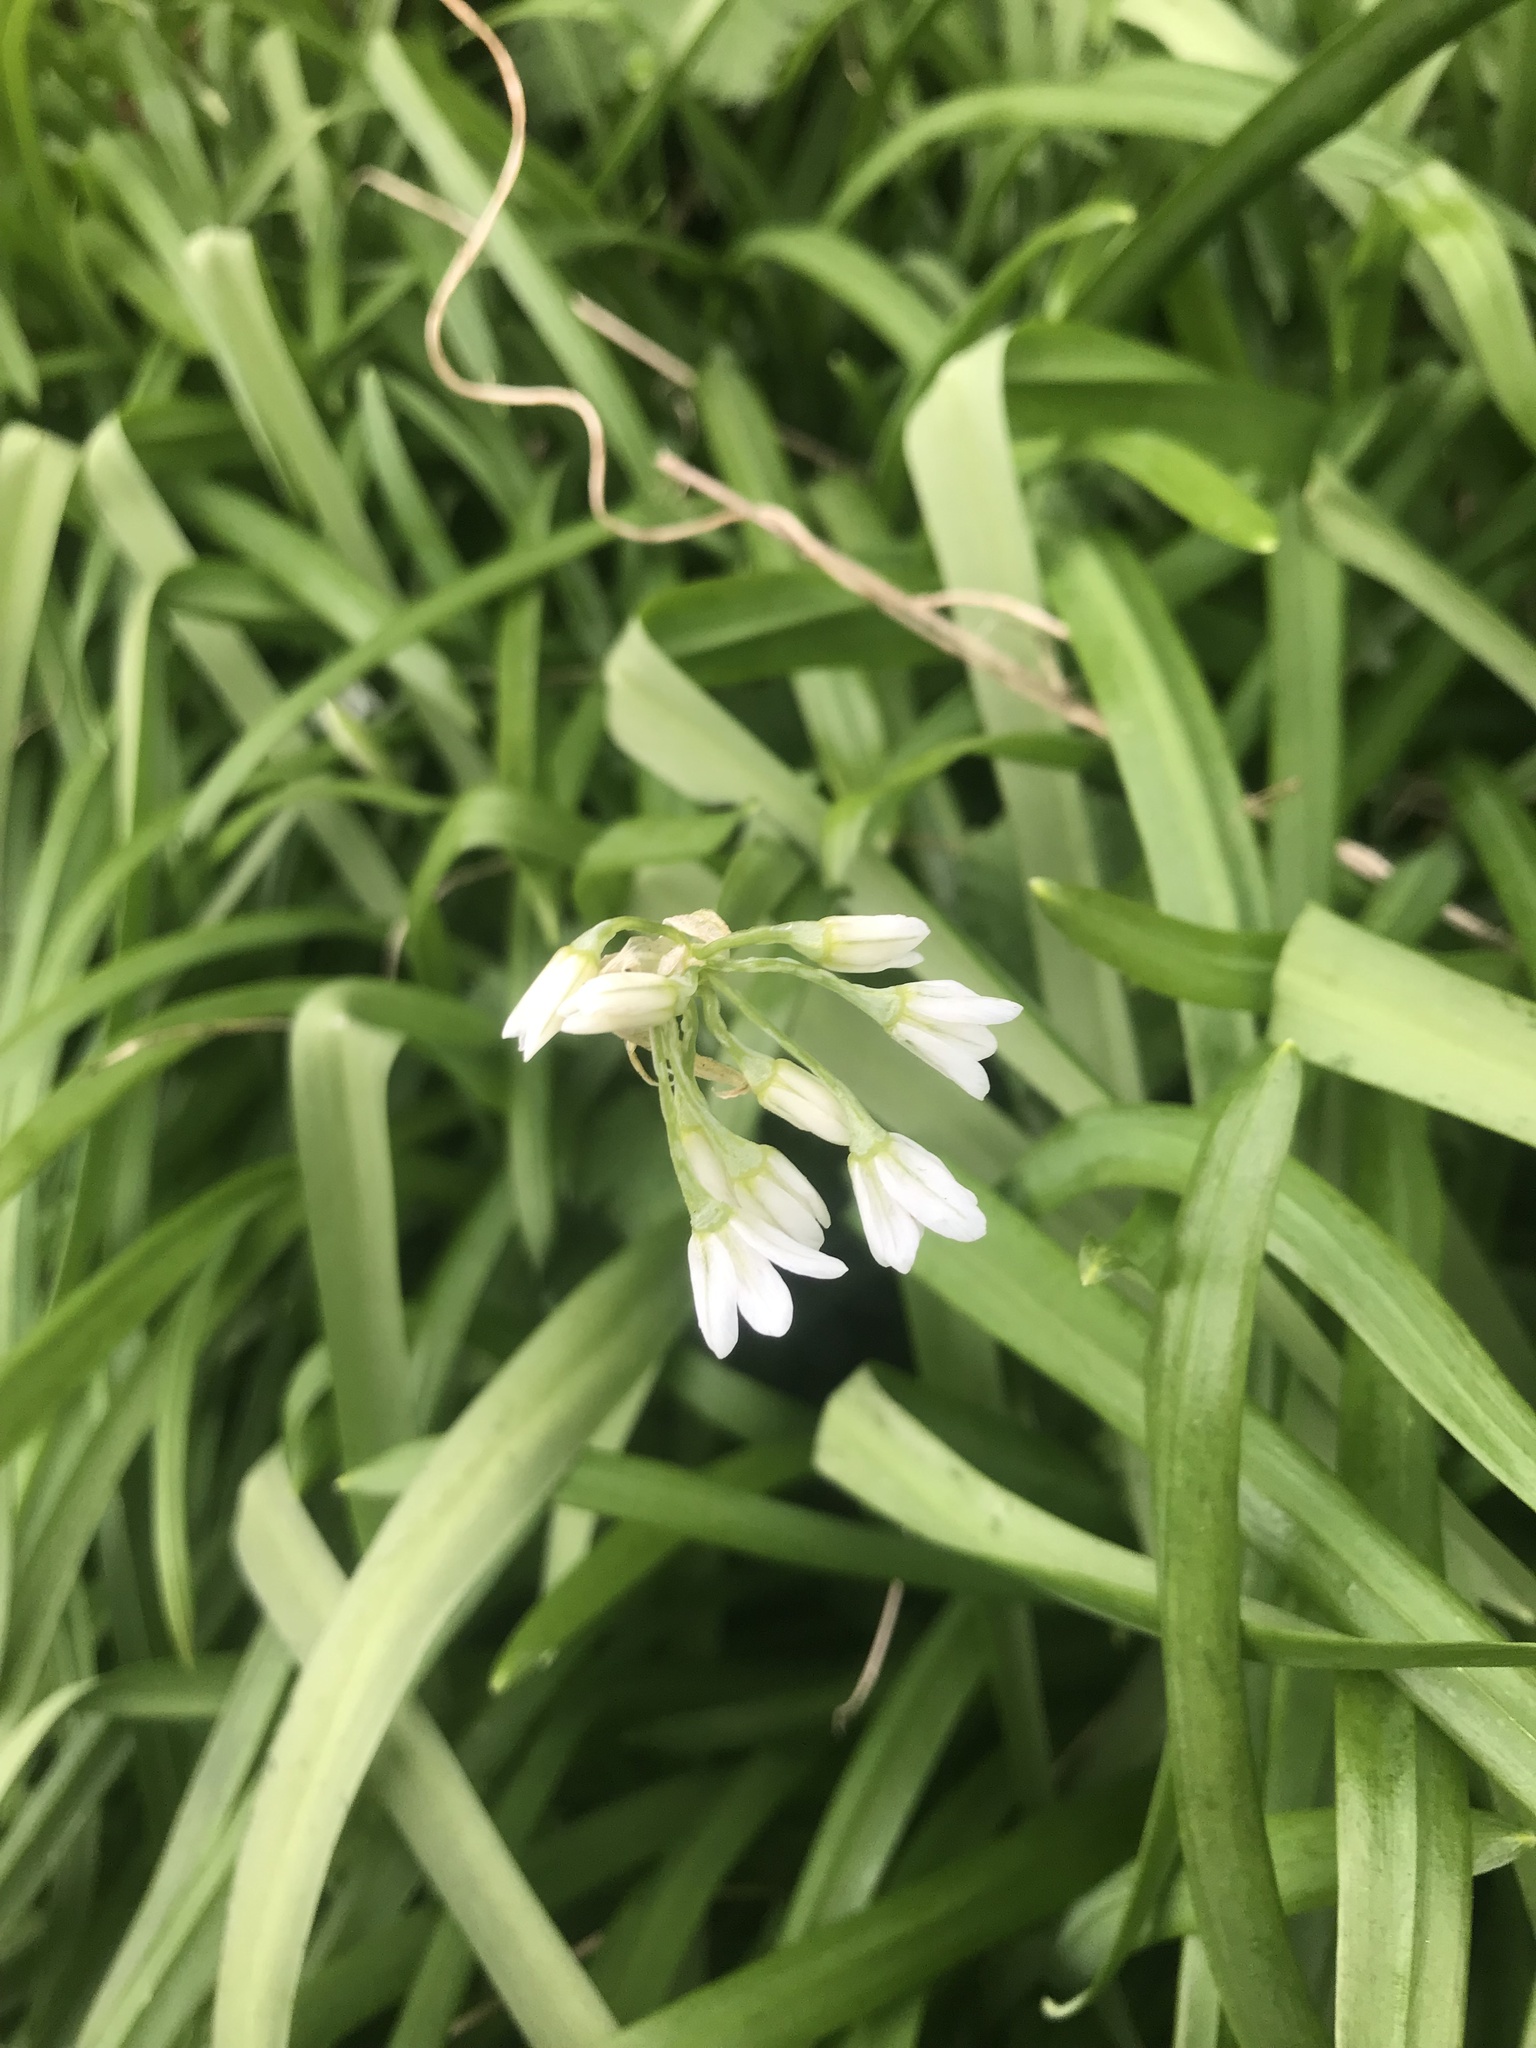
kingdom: Plantae
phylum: Tracheophyta
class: Liliopsida
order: Asparagales
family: Amaryllidaceae
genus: Allium
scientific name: Allium triquetrum
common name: Three-cornered garlic
